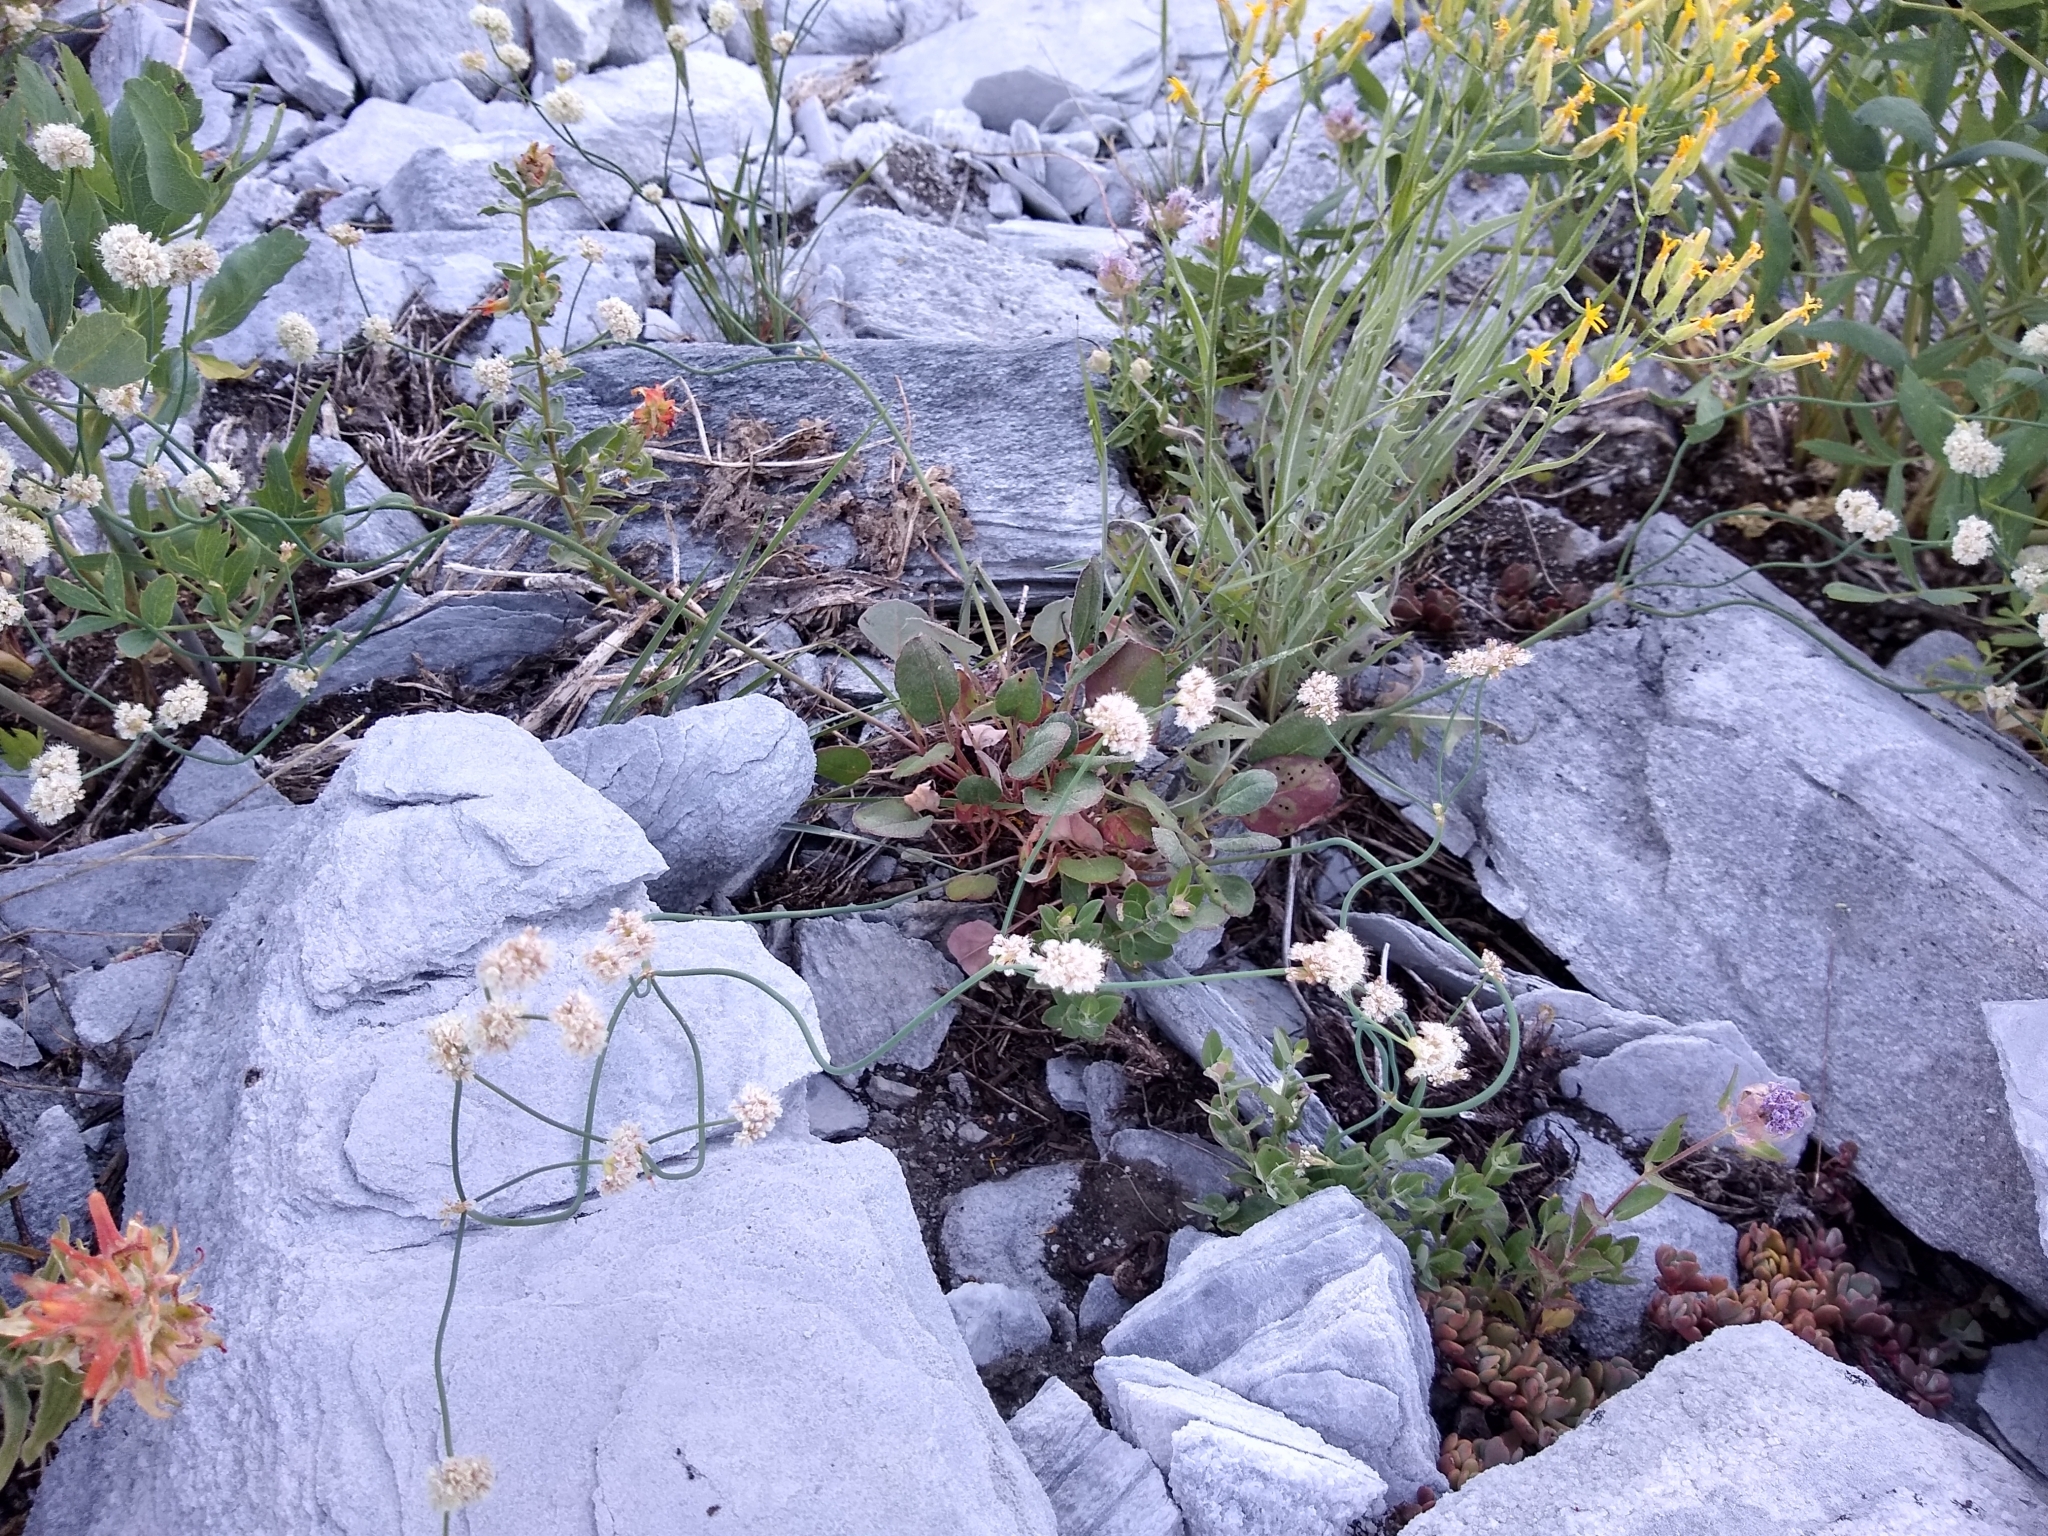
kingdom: Plantae
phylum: Tracheophyta
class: Magnoliopsida
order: Caryophyllales
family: Polygonaceae
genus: Eriogonum
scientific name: Eriogonum nudum
